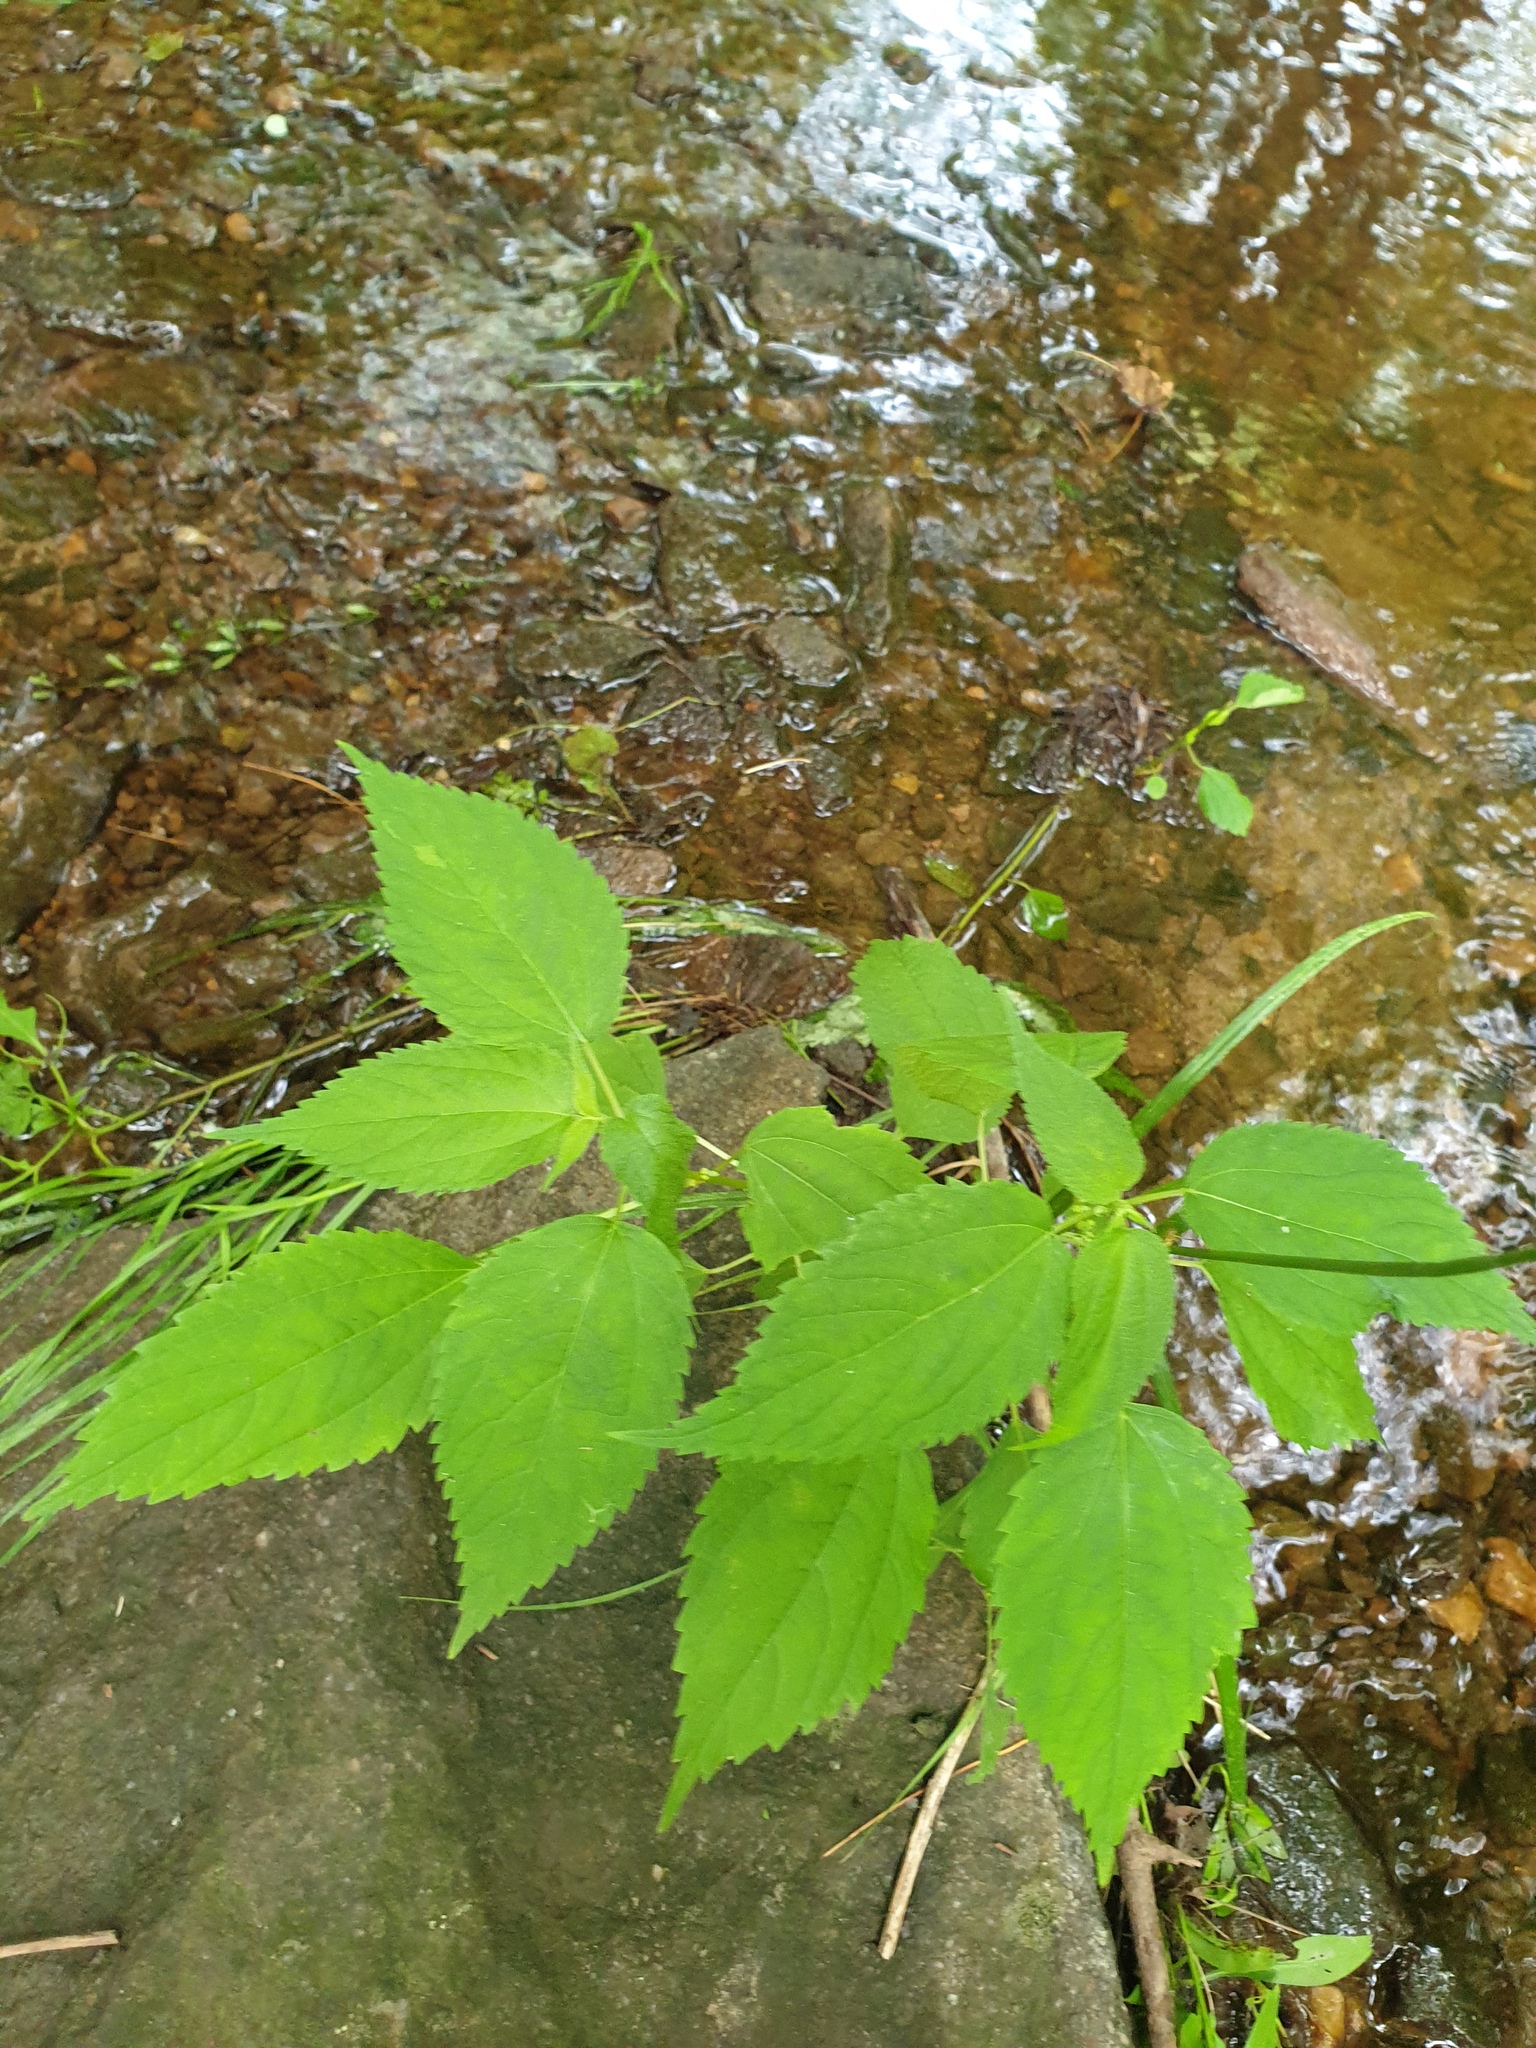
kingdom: Plantae
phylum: Tracheophyta
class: Magnoliopsida
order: Rosales
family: Urticaceae
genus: Boehmeria
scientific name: Boehmeria cylindrica
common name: Bog-hemp
